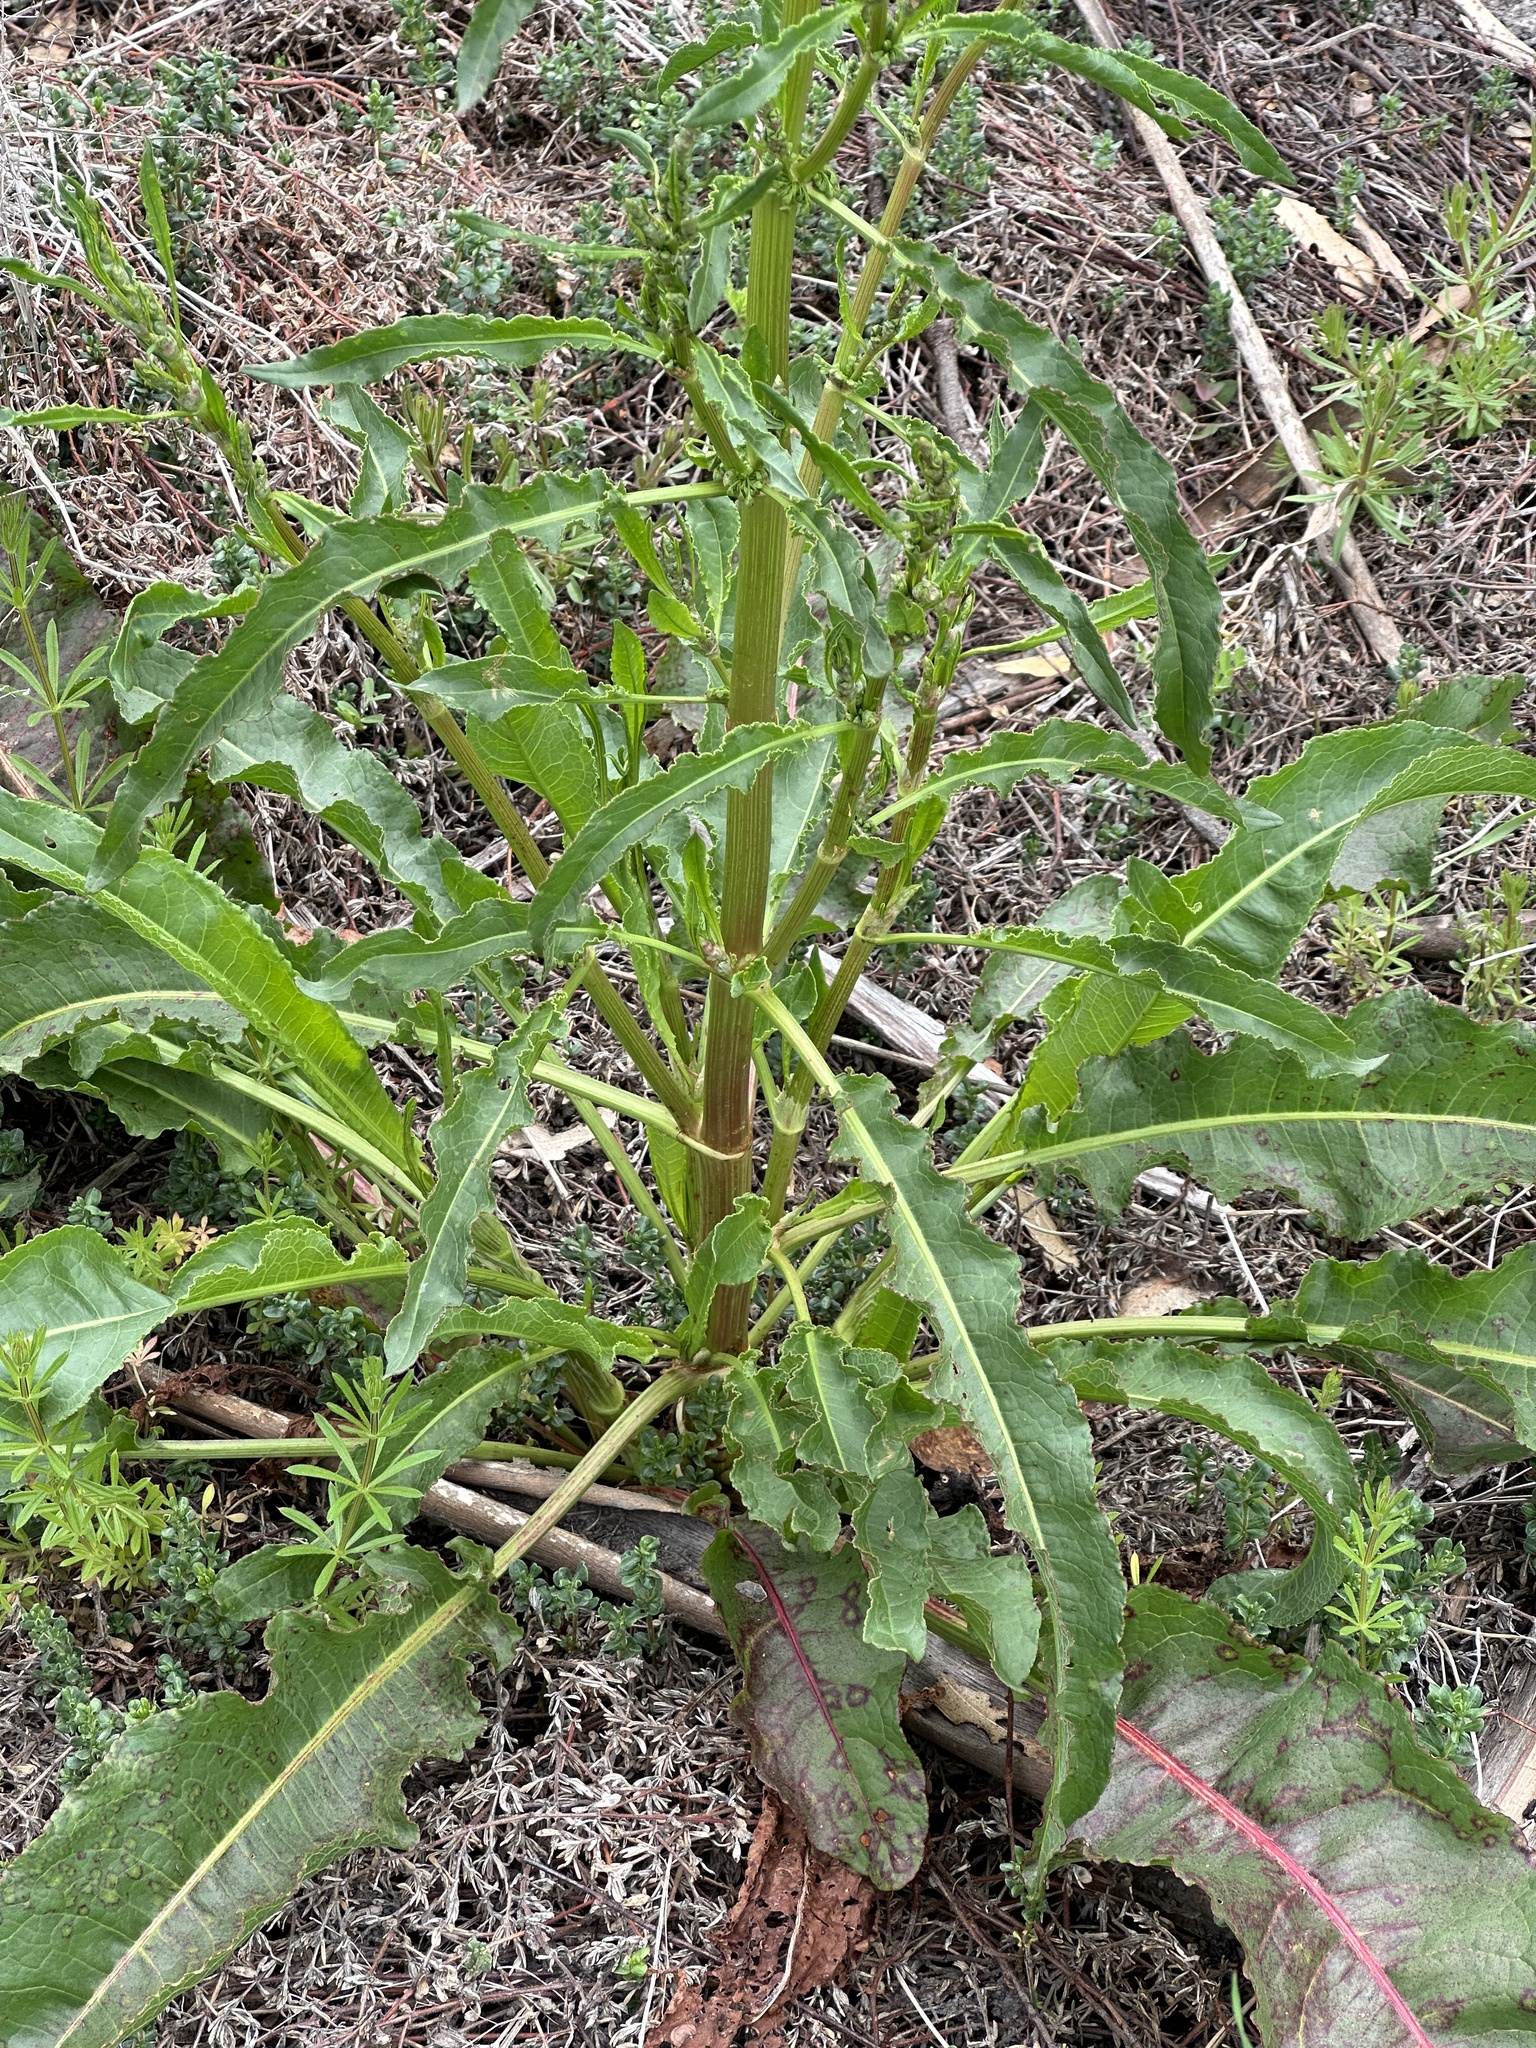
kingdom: Plantae
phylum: Tracheophyta
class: Magnoliopsida
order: Caryophyllales
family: Polygonaceae
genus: Rumex
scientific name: Rumex crispus
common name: Curled dock
